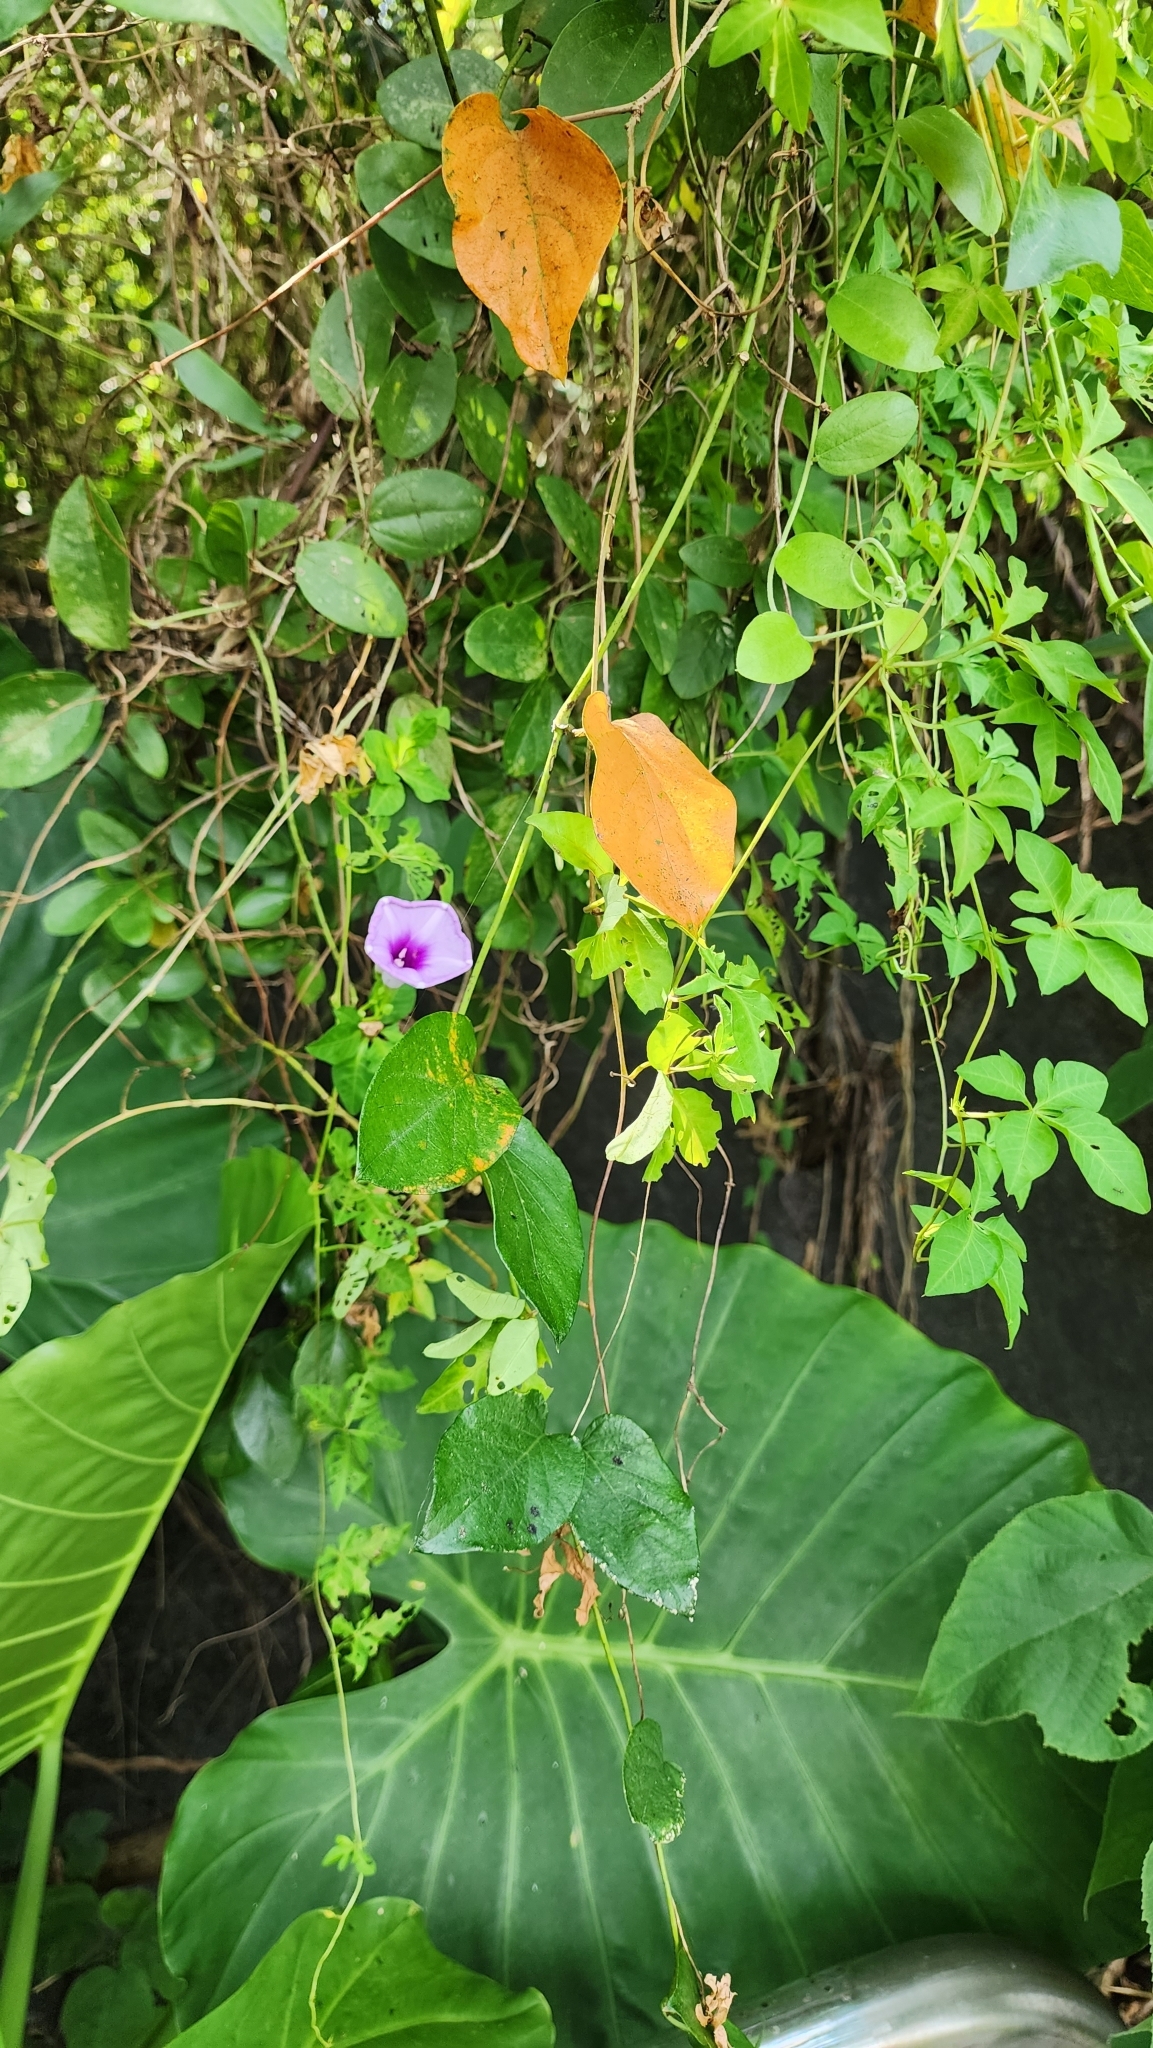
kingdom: Plantae
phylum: Tracheophyta
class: Magnoliopsida
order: Solanales
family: Convolvulaceae
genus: Ipomoea
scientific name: Ipomoea cairica
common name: Mile a minute vine
